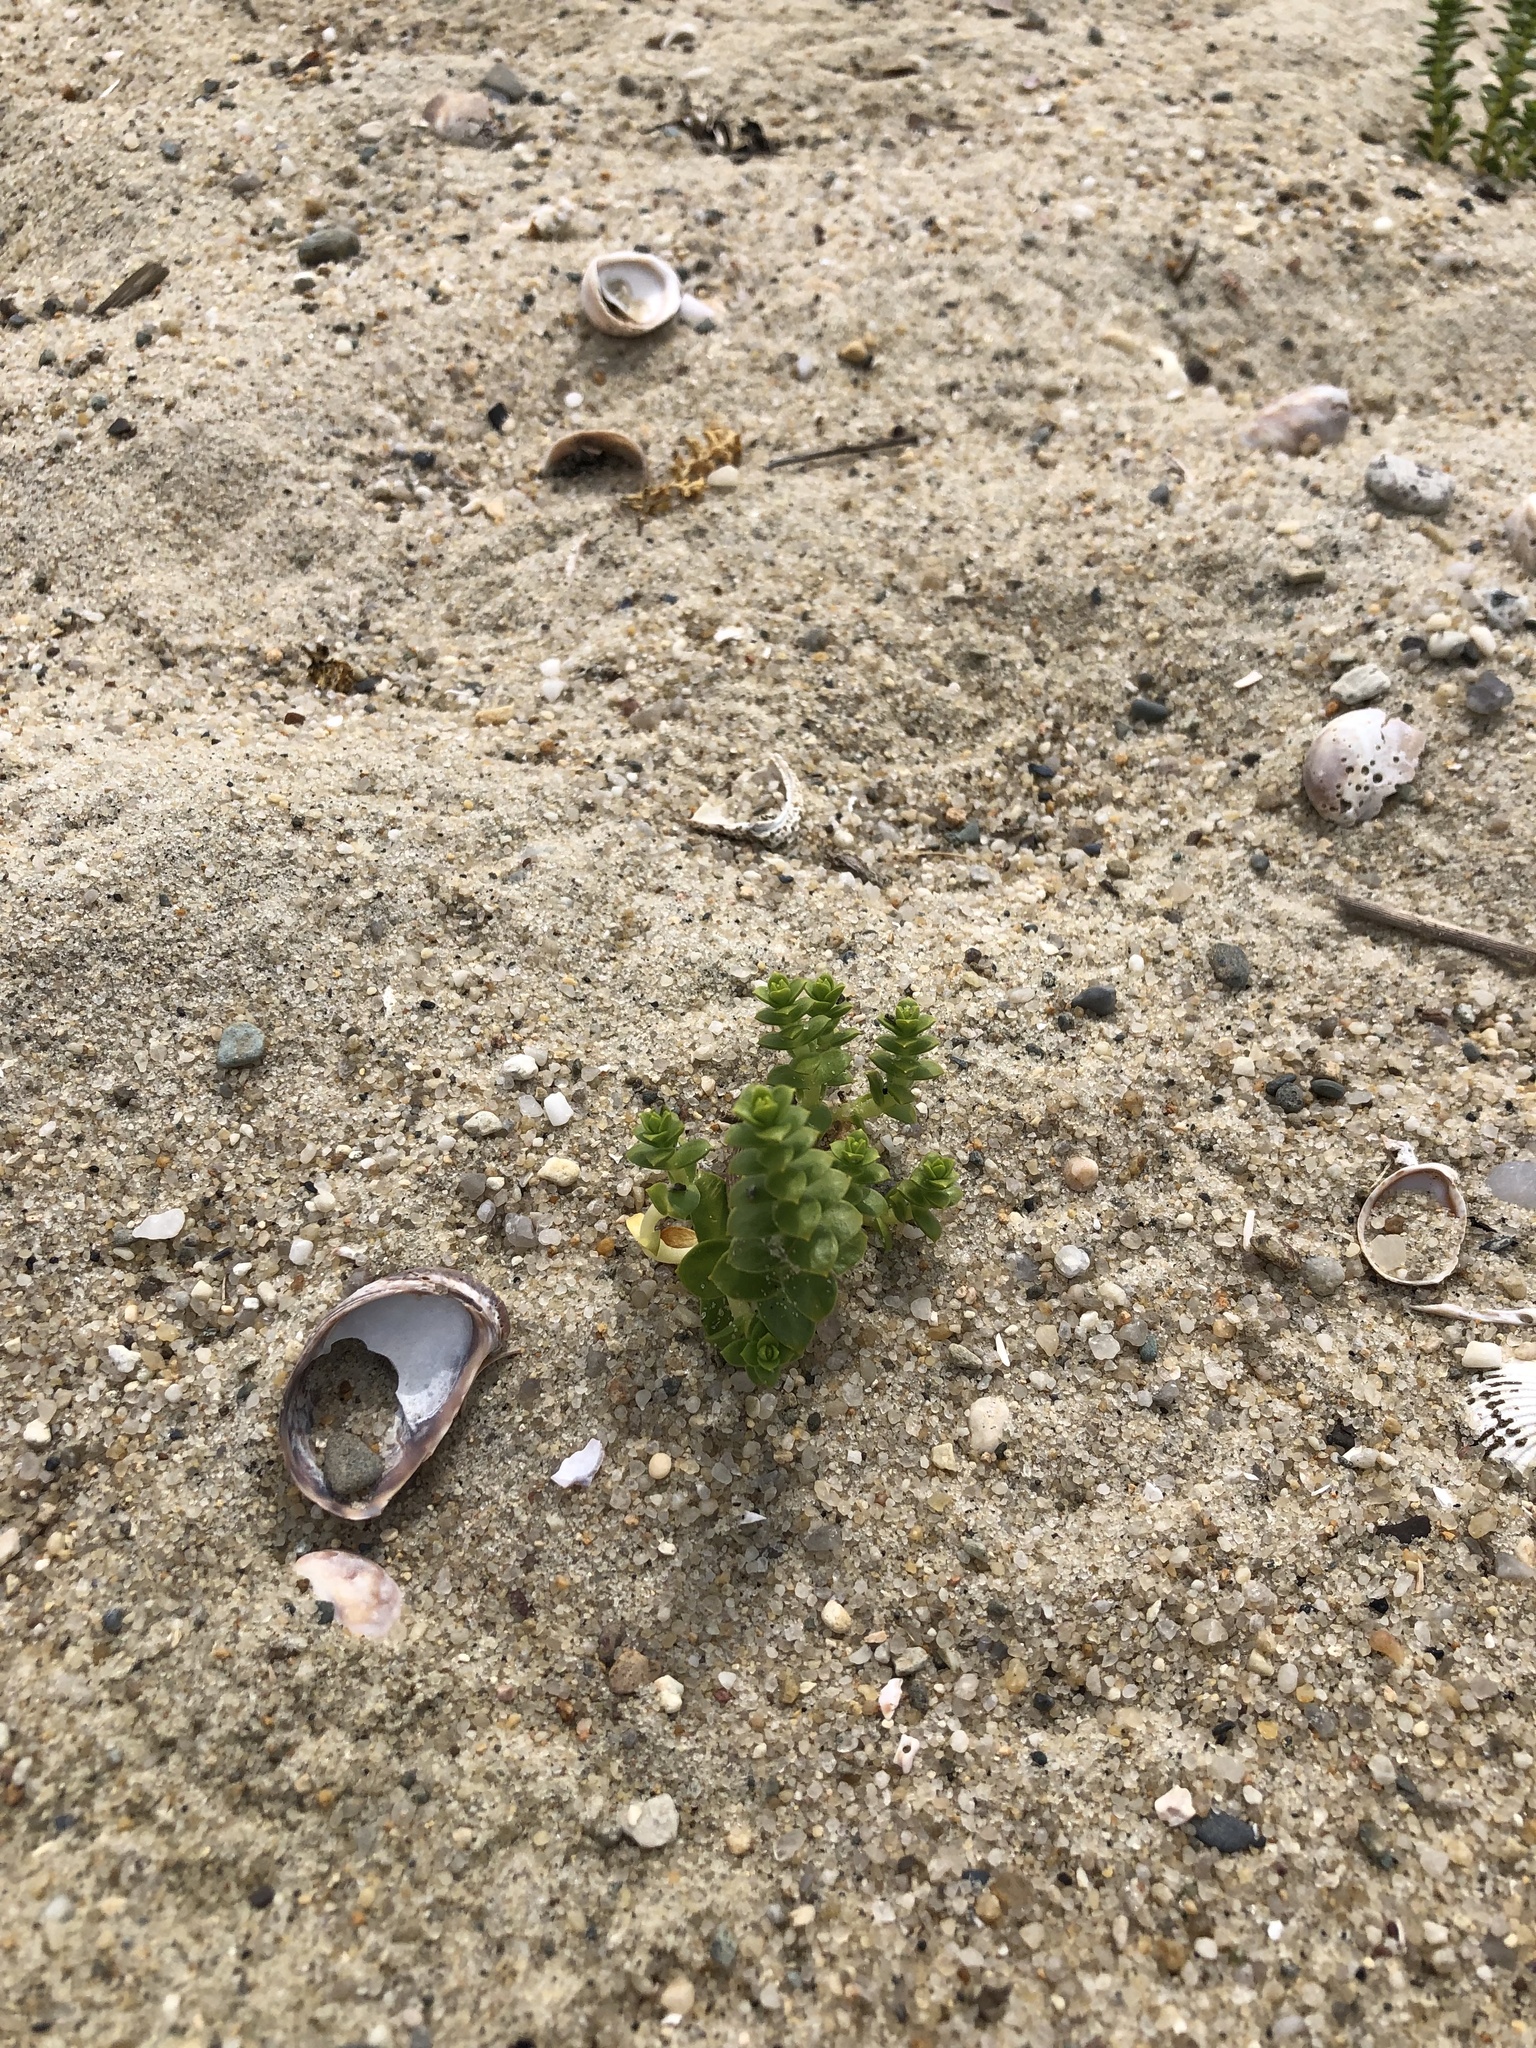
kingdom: Plantae
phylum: Tracheophyta
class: Magnoliopsida
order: Caryophyllales
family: Caryophyllaceae
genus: Honckenya
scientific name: Honckenya peploides
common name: Sea sandwort
